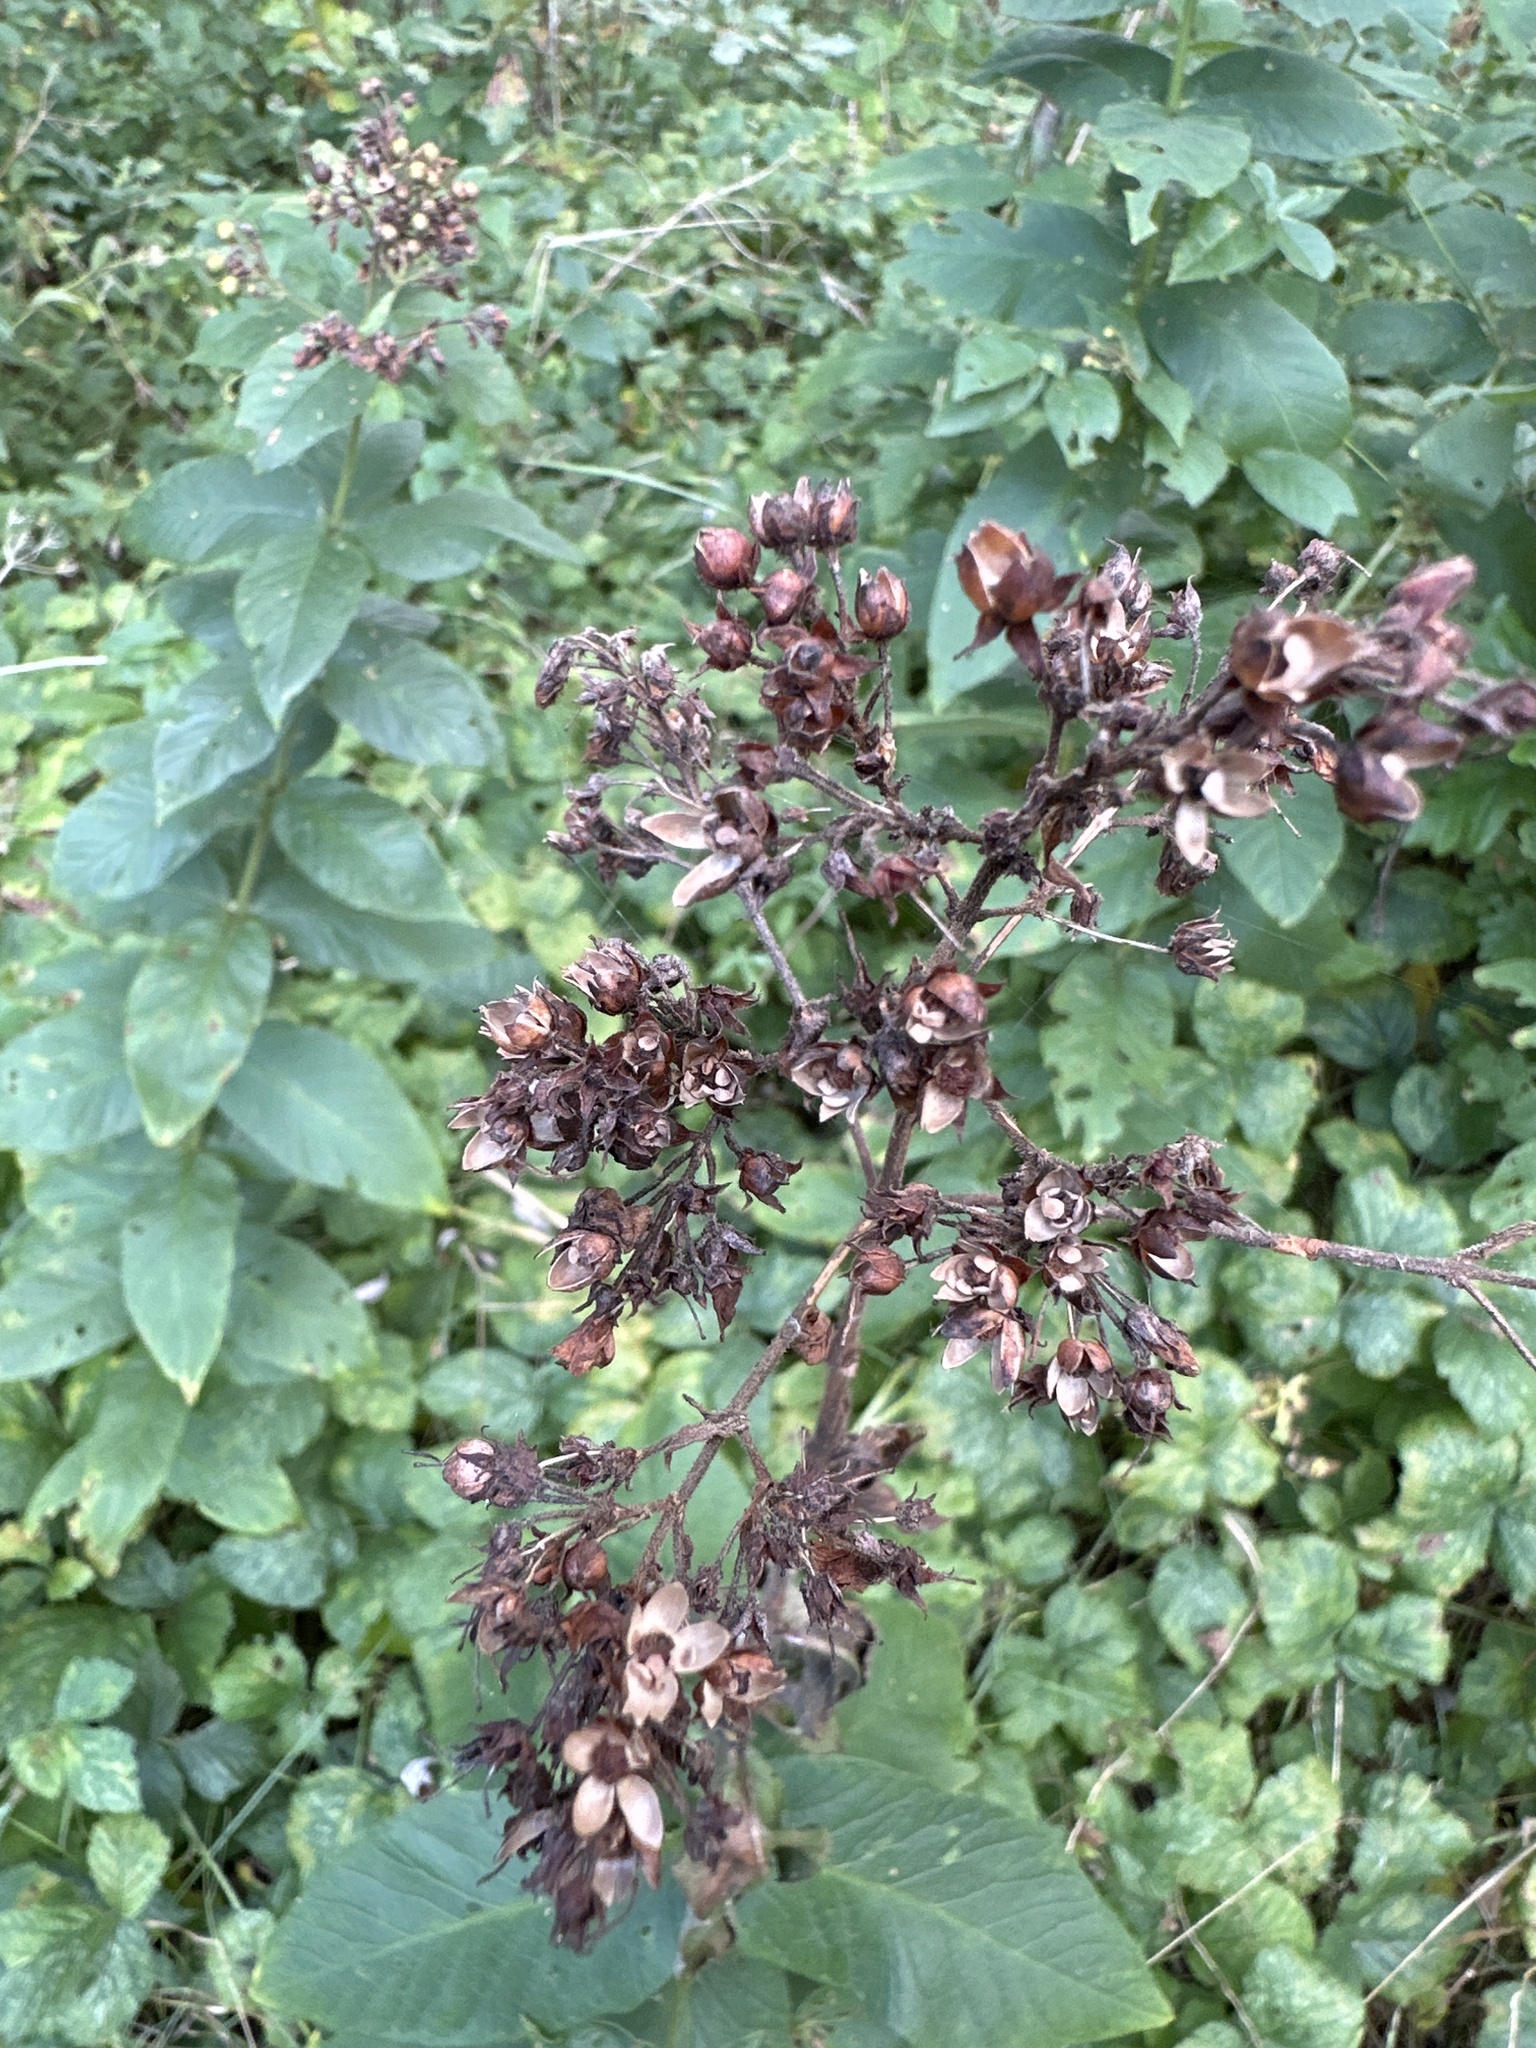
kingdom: Plantae
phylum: Tracheophyta
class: Magnoliopsida
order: Ericales
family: Primulaceae
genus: Lysimachia
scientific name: Lysimachia vulgaris
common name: Yellow loosestrife
